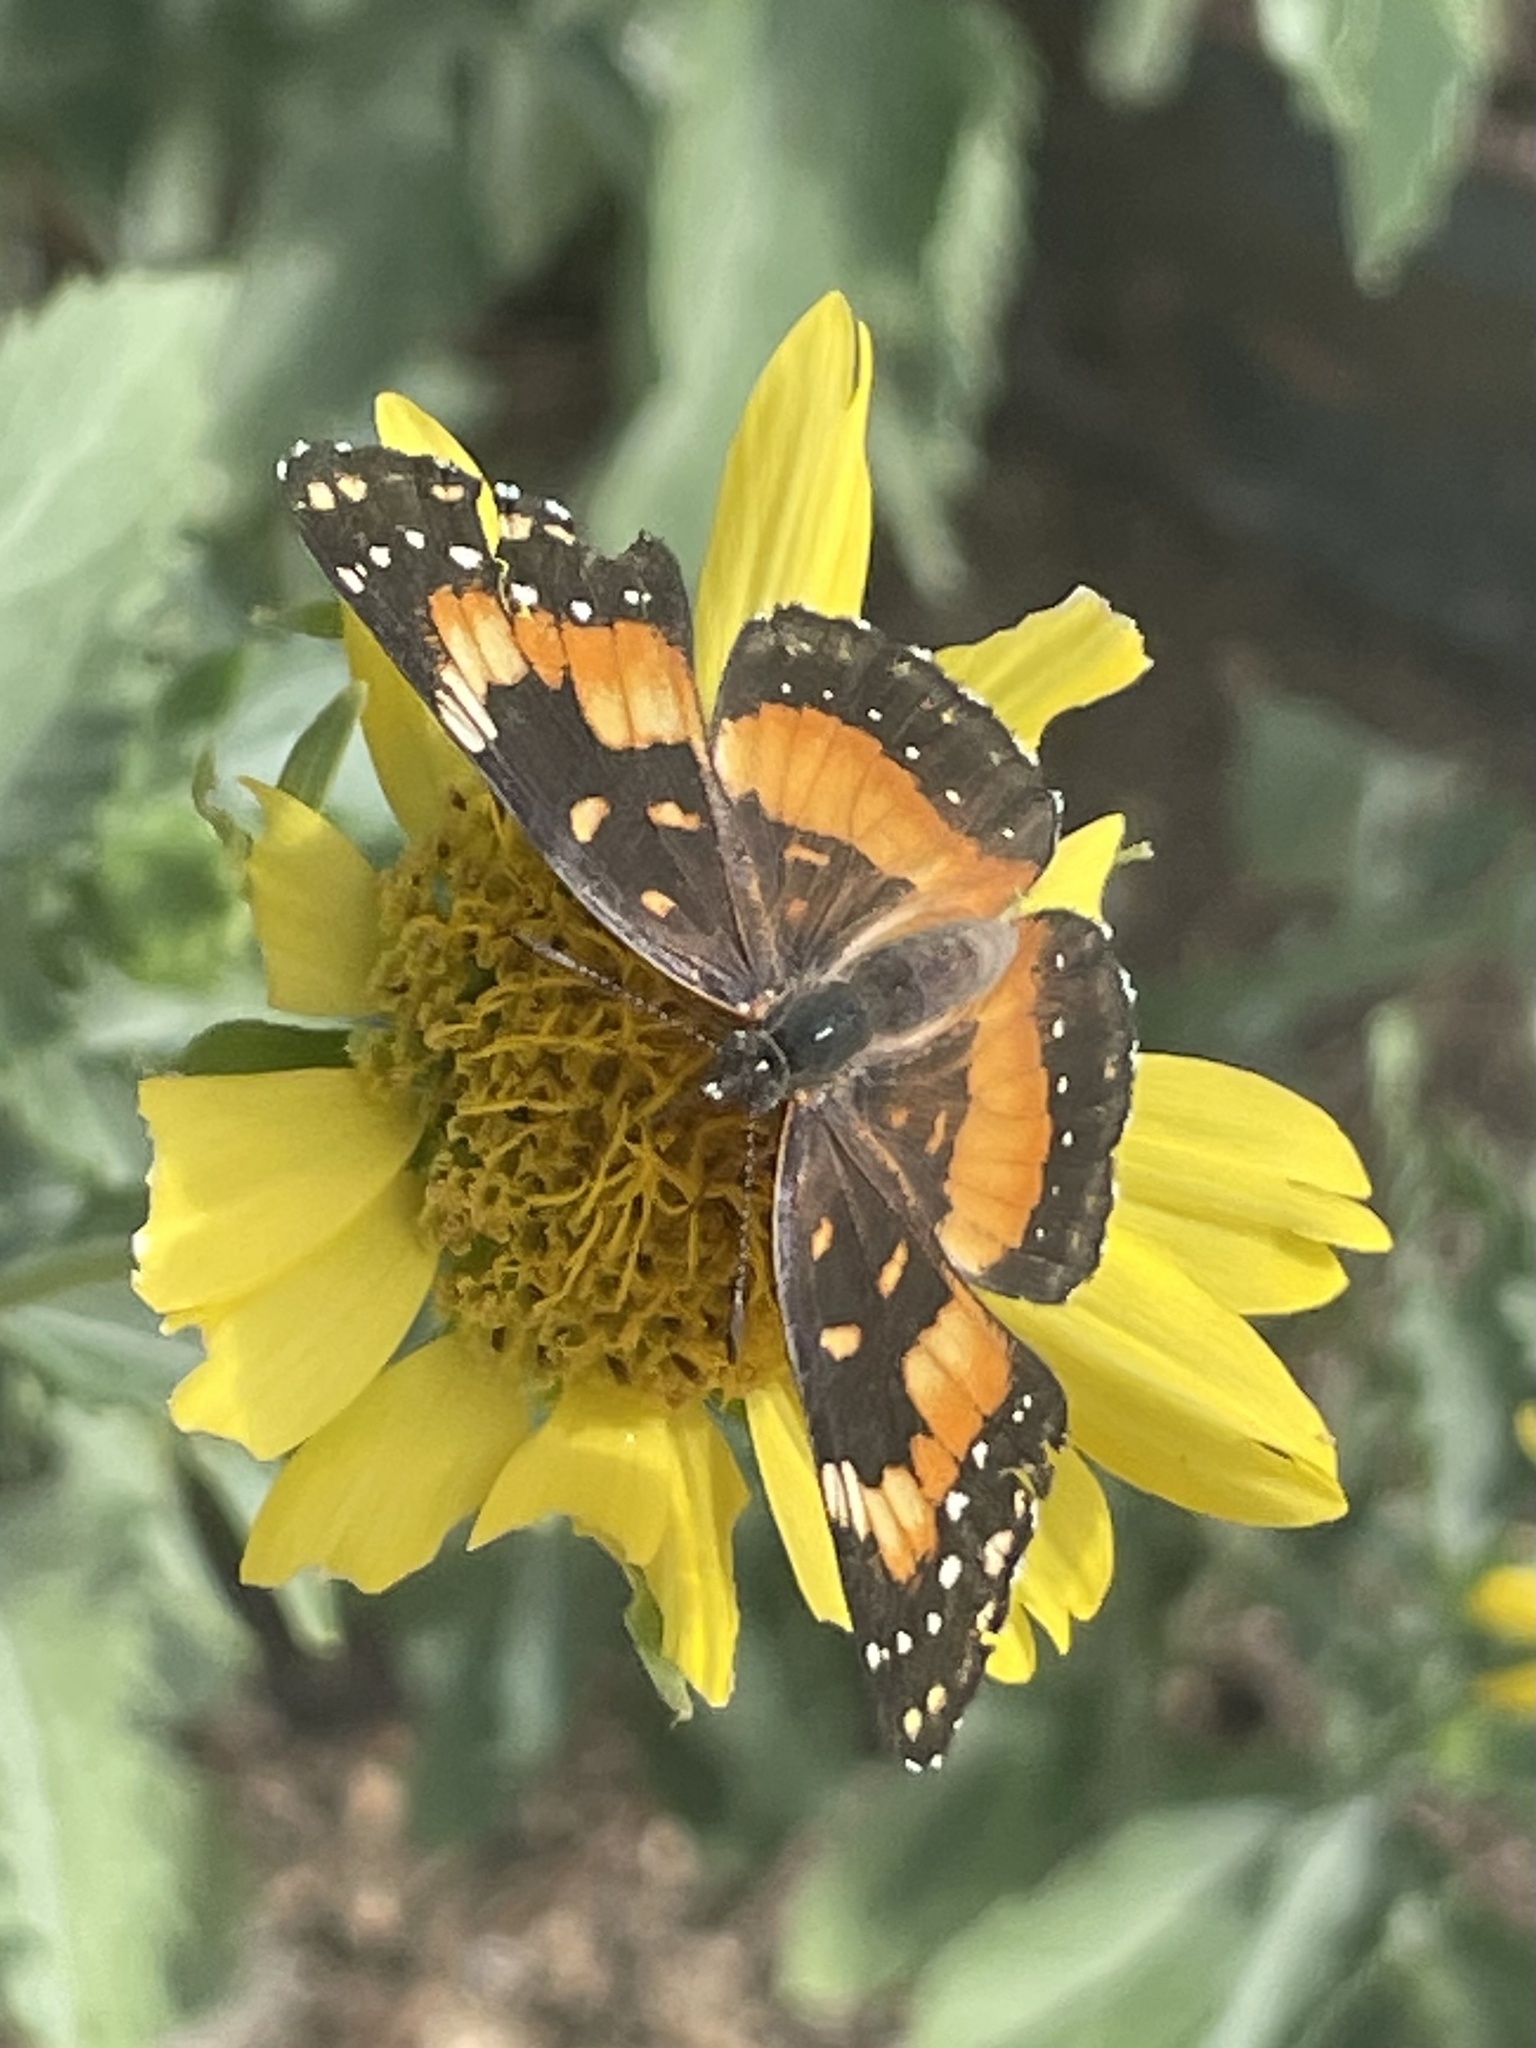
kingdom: Animalia
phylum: Arthropoda
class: Insecta
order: Lepidoptera
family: Nymphalidae
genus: Chlosyne
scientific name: Chlosyne lacinia
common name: Bordered patch
